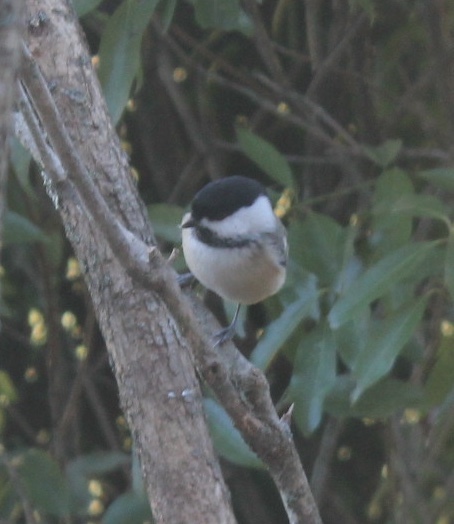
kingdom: Animalia
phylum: Chordata
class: Aves
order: Passeriformes
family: Paridae
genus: Poecile
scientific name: Poecile atricapillus
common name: Black-capped chickadee
